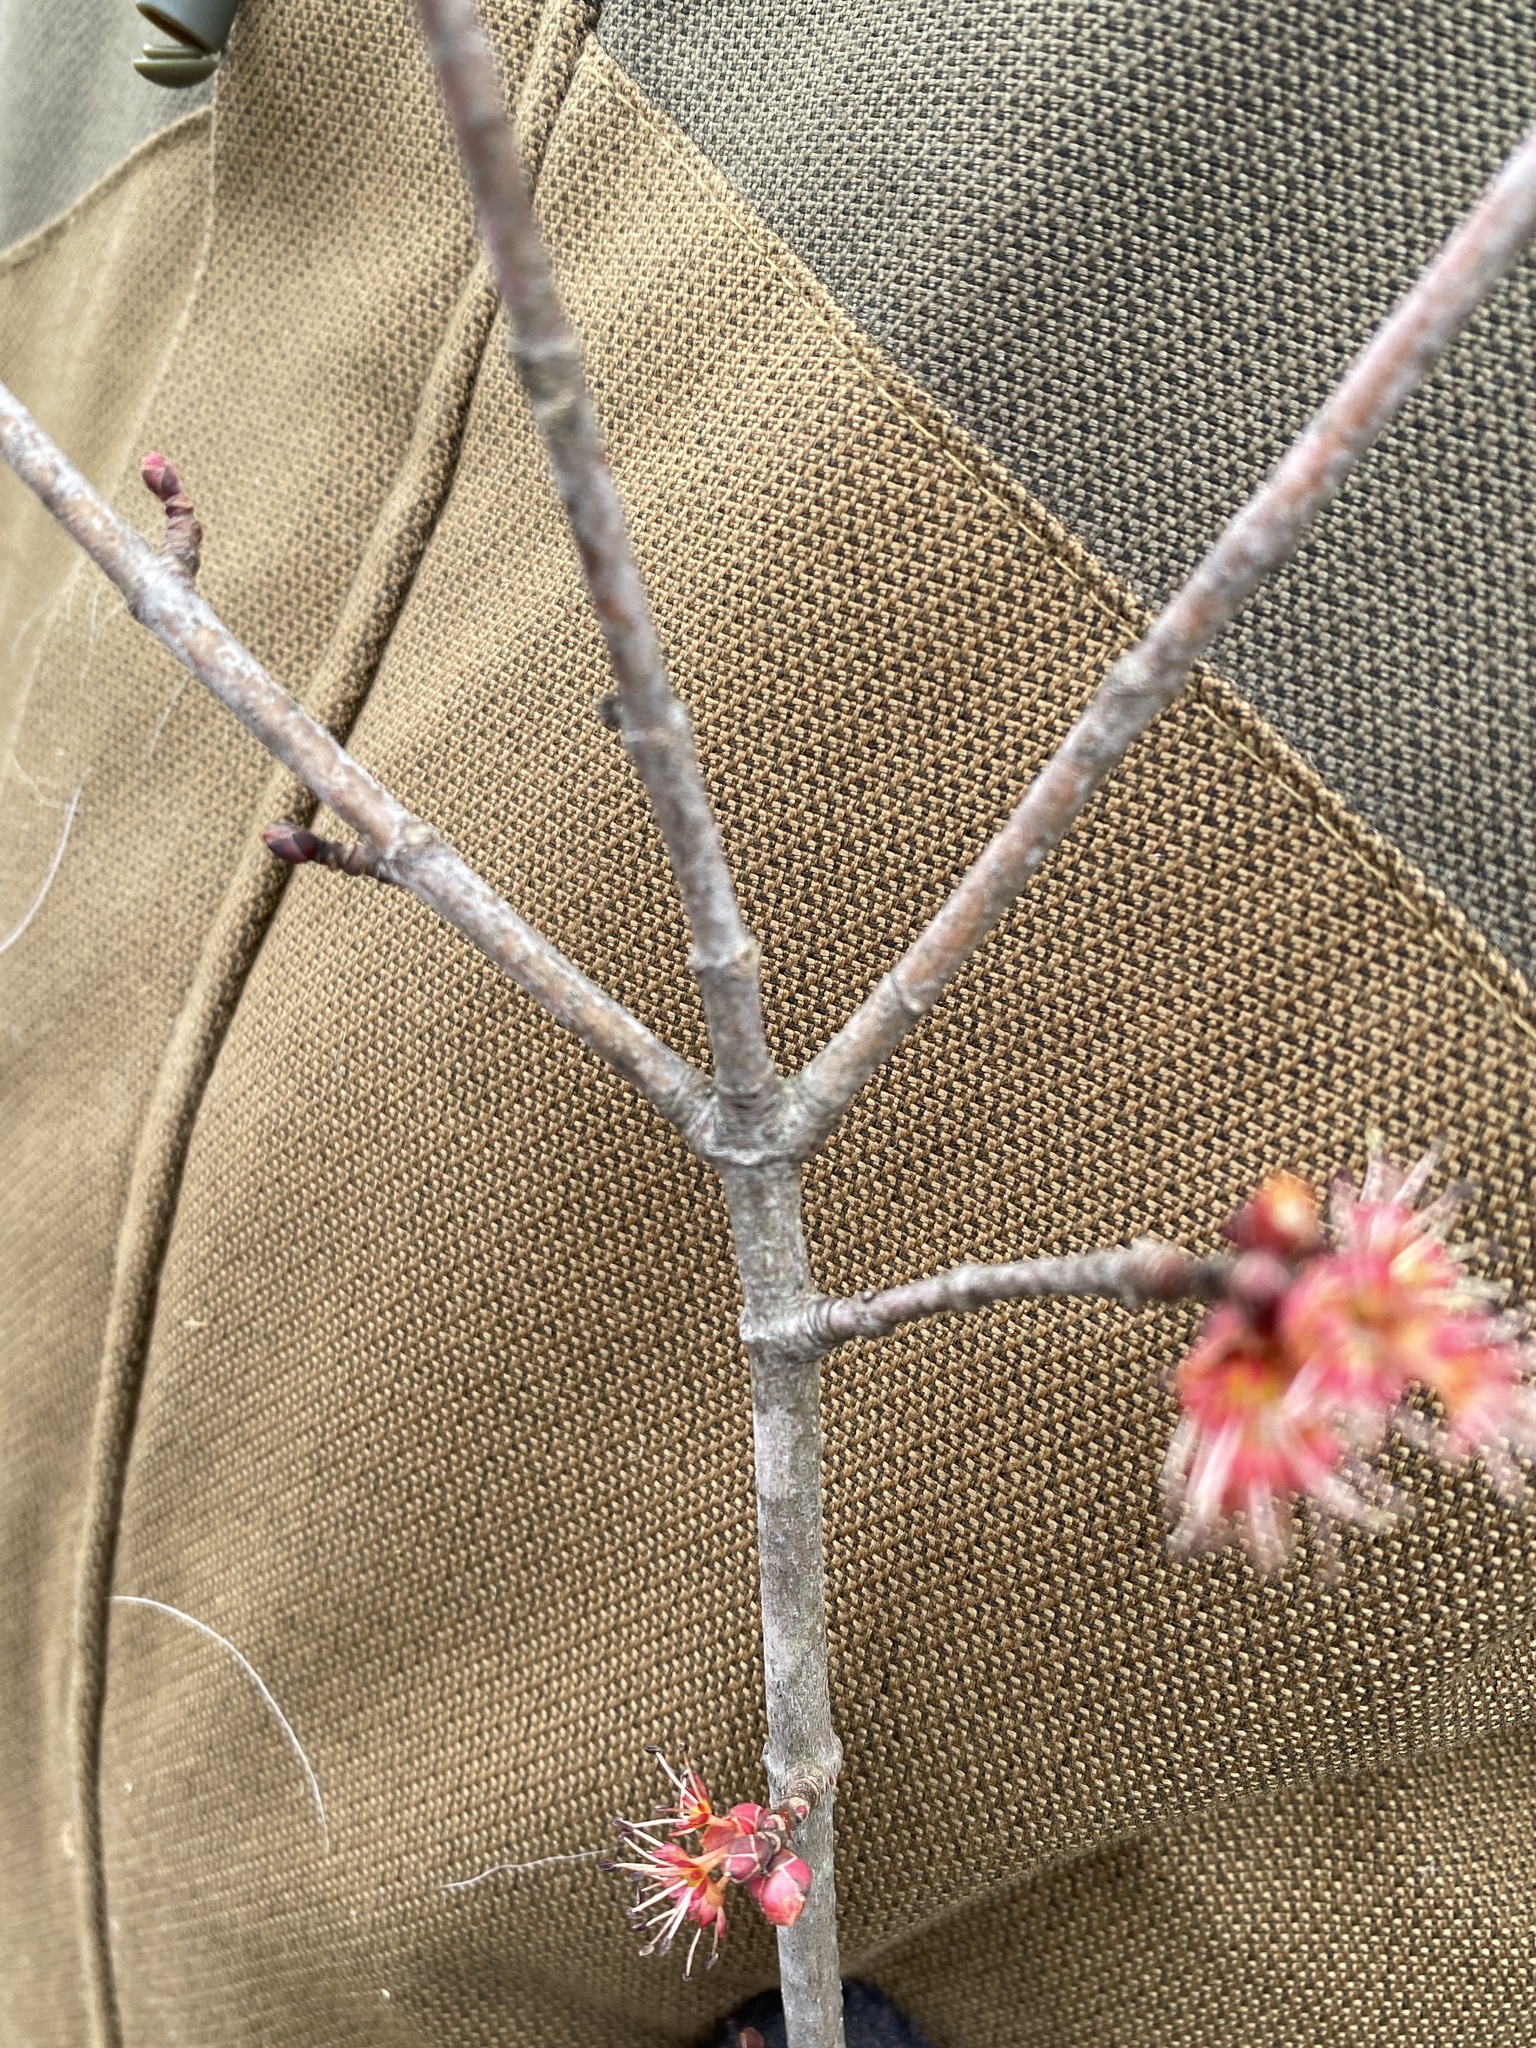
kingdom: Plantae
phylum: Tracheophyta
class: Magnoliopsida
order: Sapindales
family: Sapindaceae
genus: Acer
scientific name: Acer rubrum
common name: Red maple
